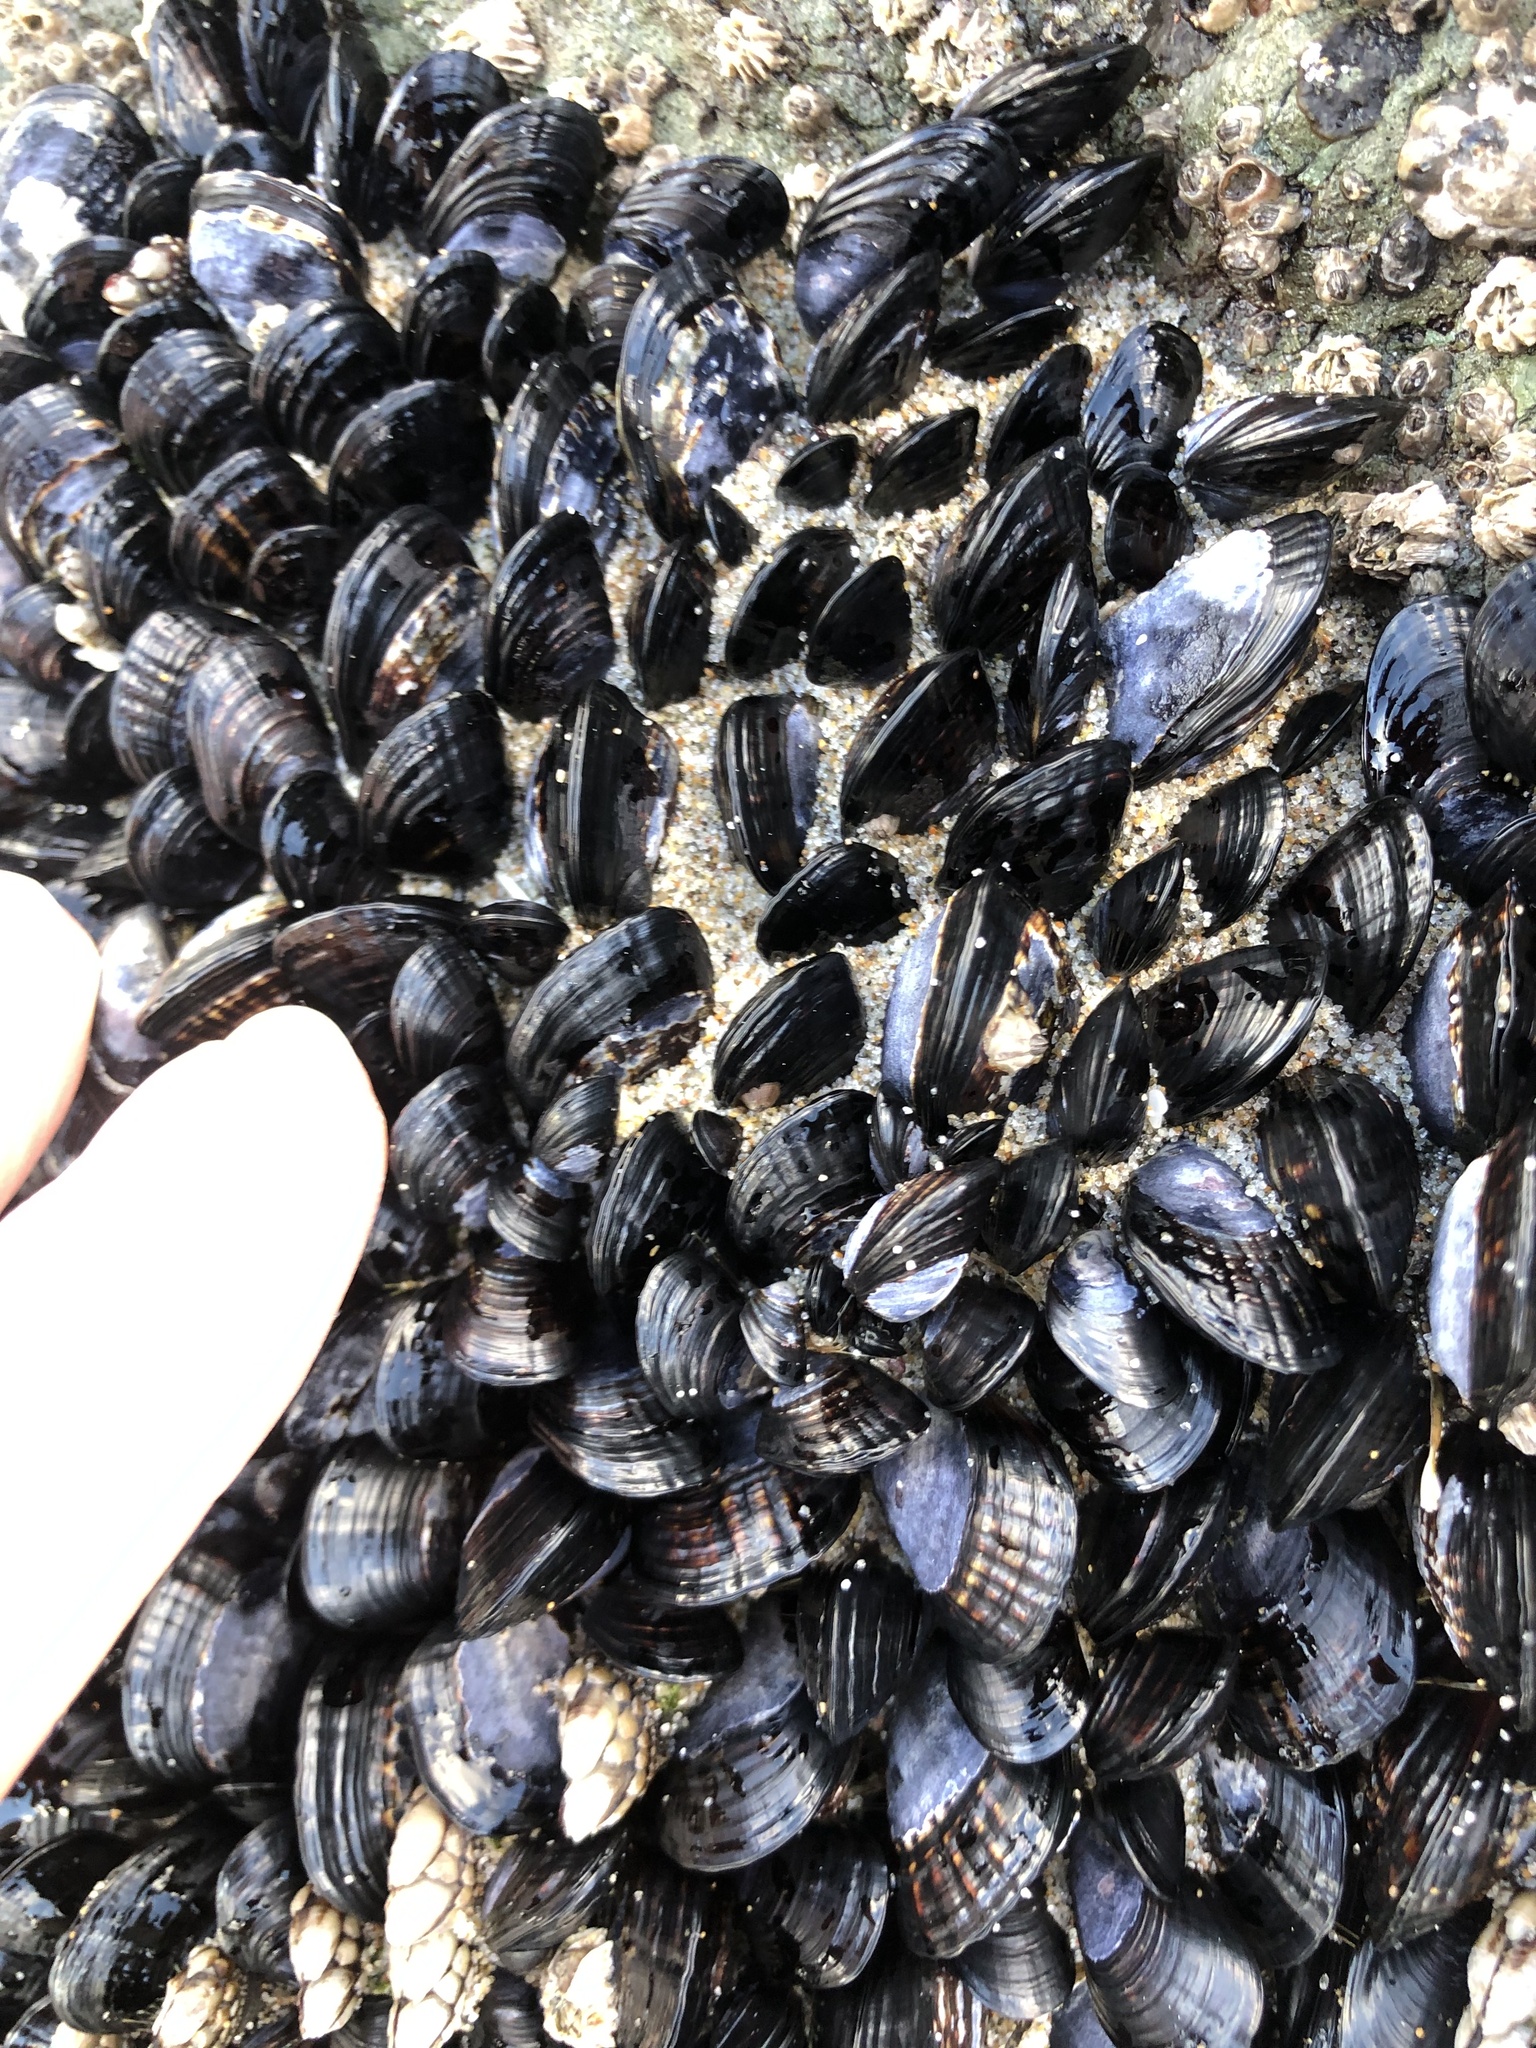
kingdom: Animalia
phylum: Mollusca
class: Bivalvia
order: Mytilida
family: Mytilidae
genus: Mytilus
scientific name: Mytilus californianus
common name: California mussel
